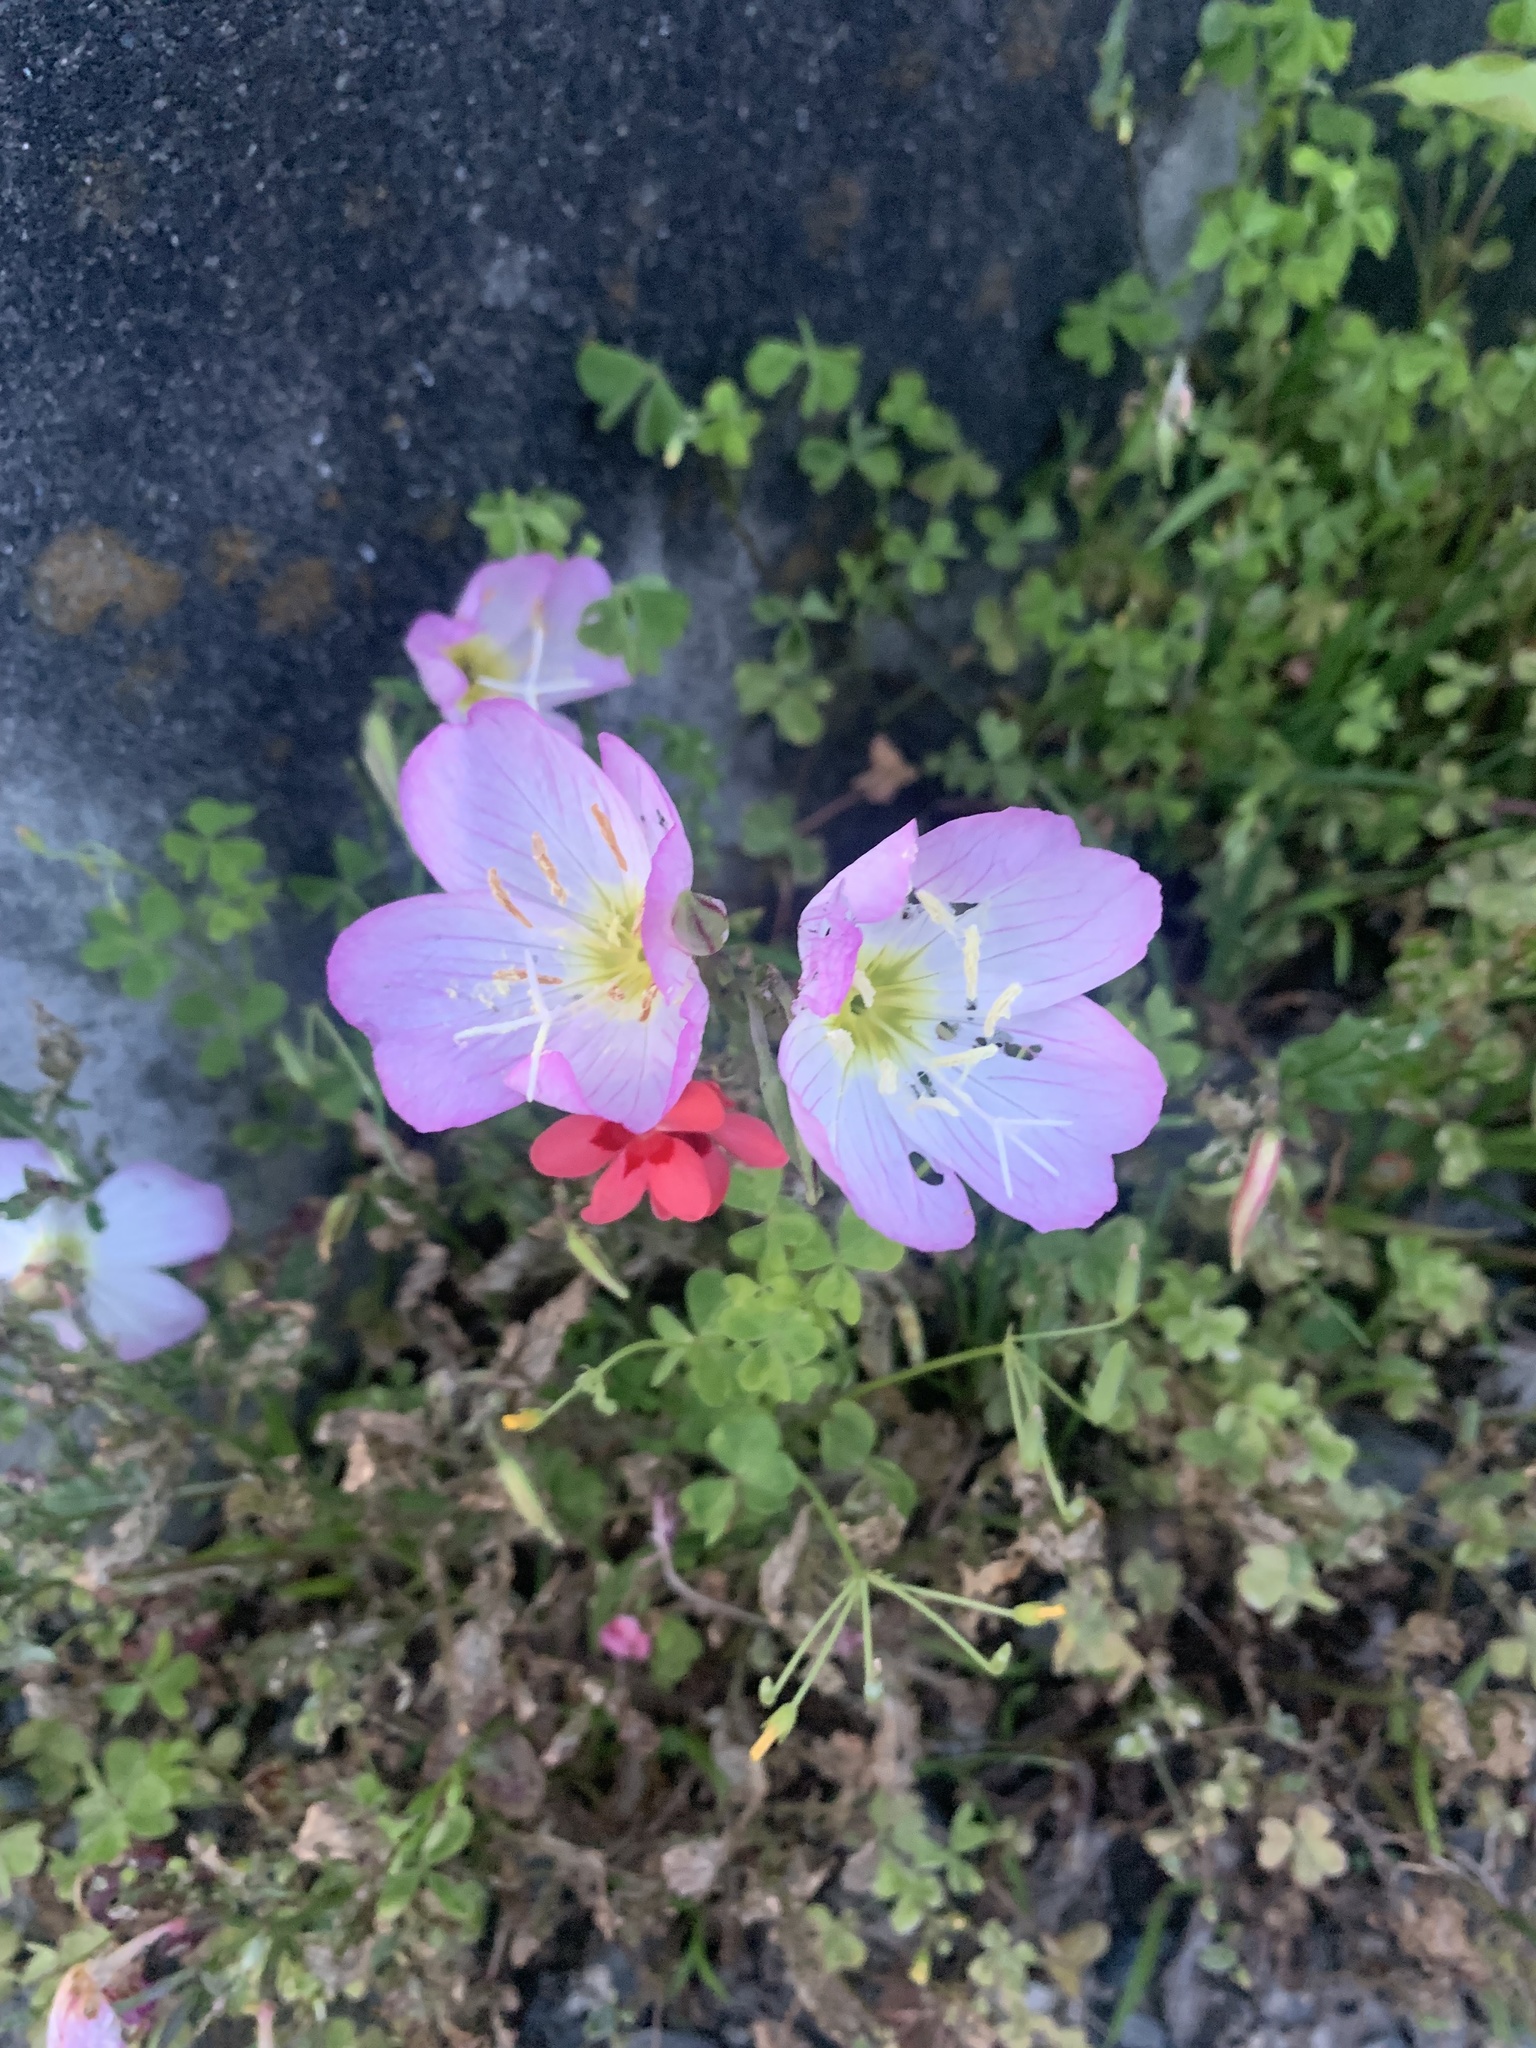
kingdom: Plantae
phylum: Tracheophyta
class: Magnoliopsida
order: Myrtales
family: Onagraceae
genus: Oenothera
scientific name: Oenothera speciosa
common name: White evening-primrose
